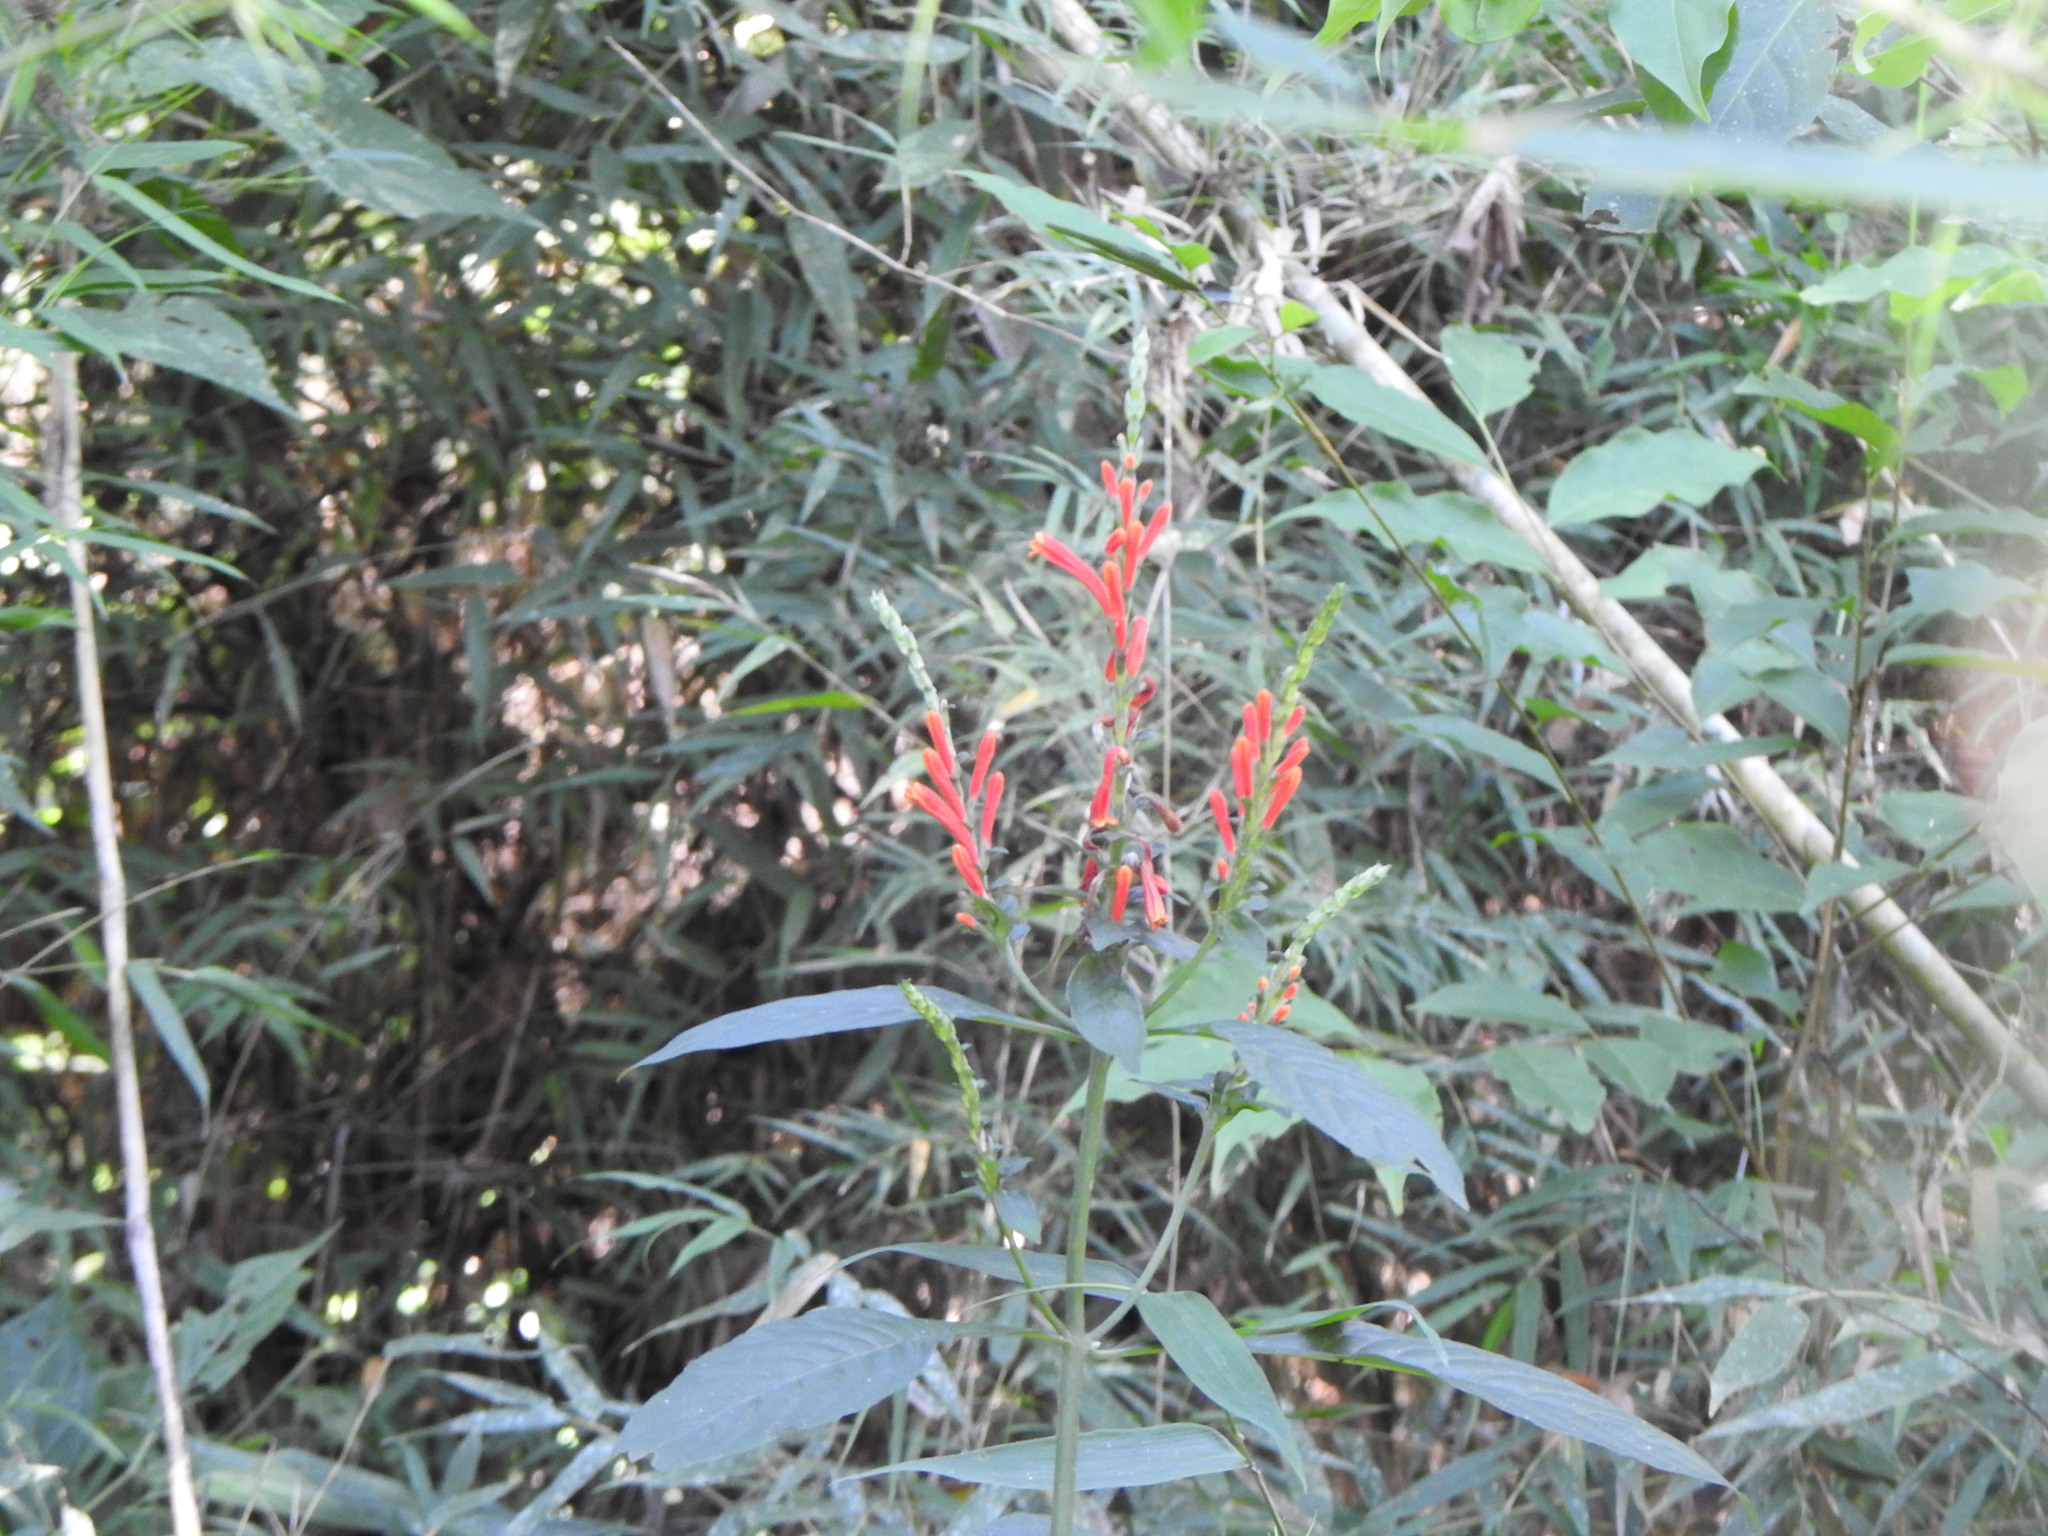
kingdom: Plantae
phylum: Tracheophyta
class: Magnoliopsida
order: Lamiales
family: Acanthaceae
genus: Aphelandra
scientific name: Aphelandra longiflora
